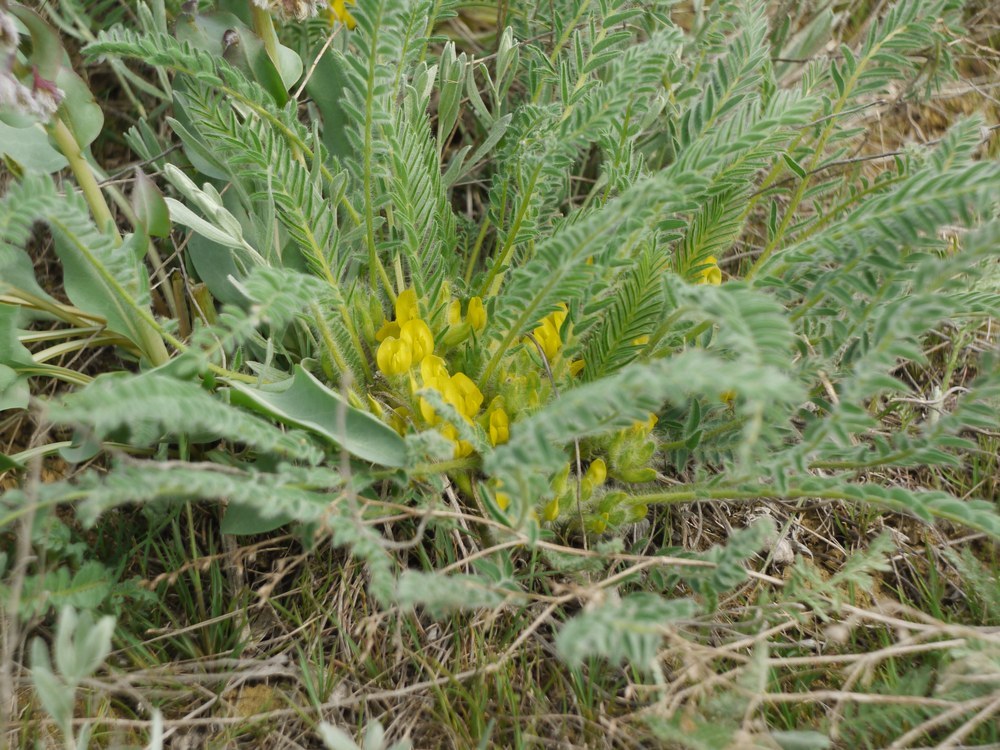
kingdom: Plantae
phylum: Tracheophyta
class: Magnoliopsida
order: Fabales
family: Fabaceae
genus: Astragalus
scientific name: Astragalus buchtormensis
